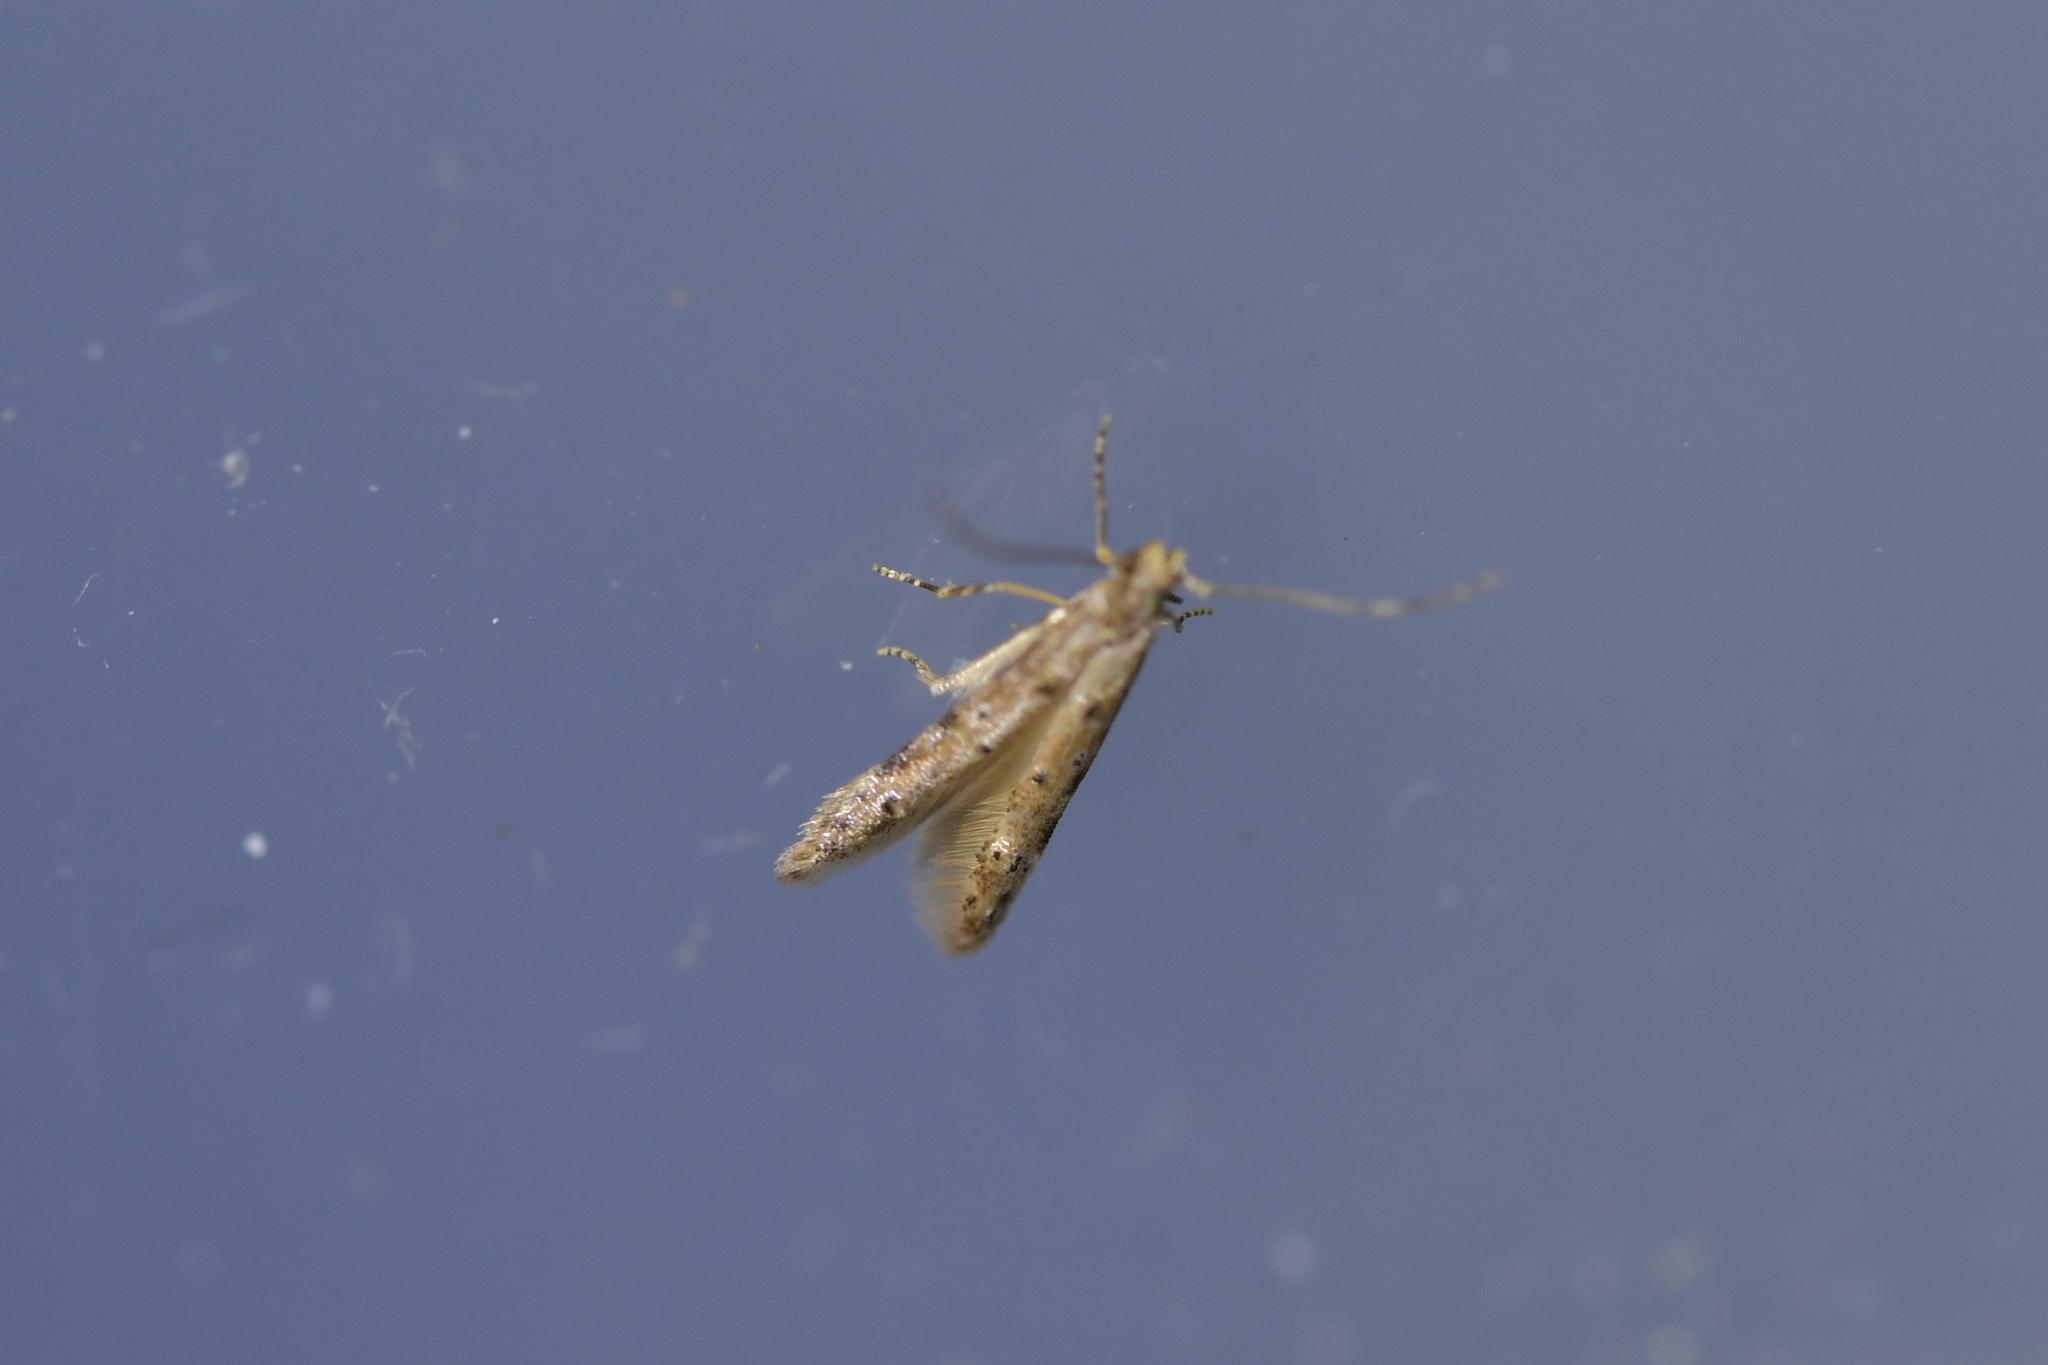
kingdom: Animalia
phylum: Arthropoda
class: Insecta
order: Lepidoptera
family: Elachistidae
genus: Microcolona
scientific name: Microcolona limodes
